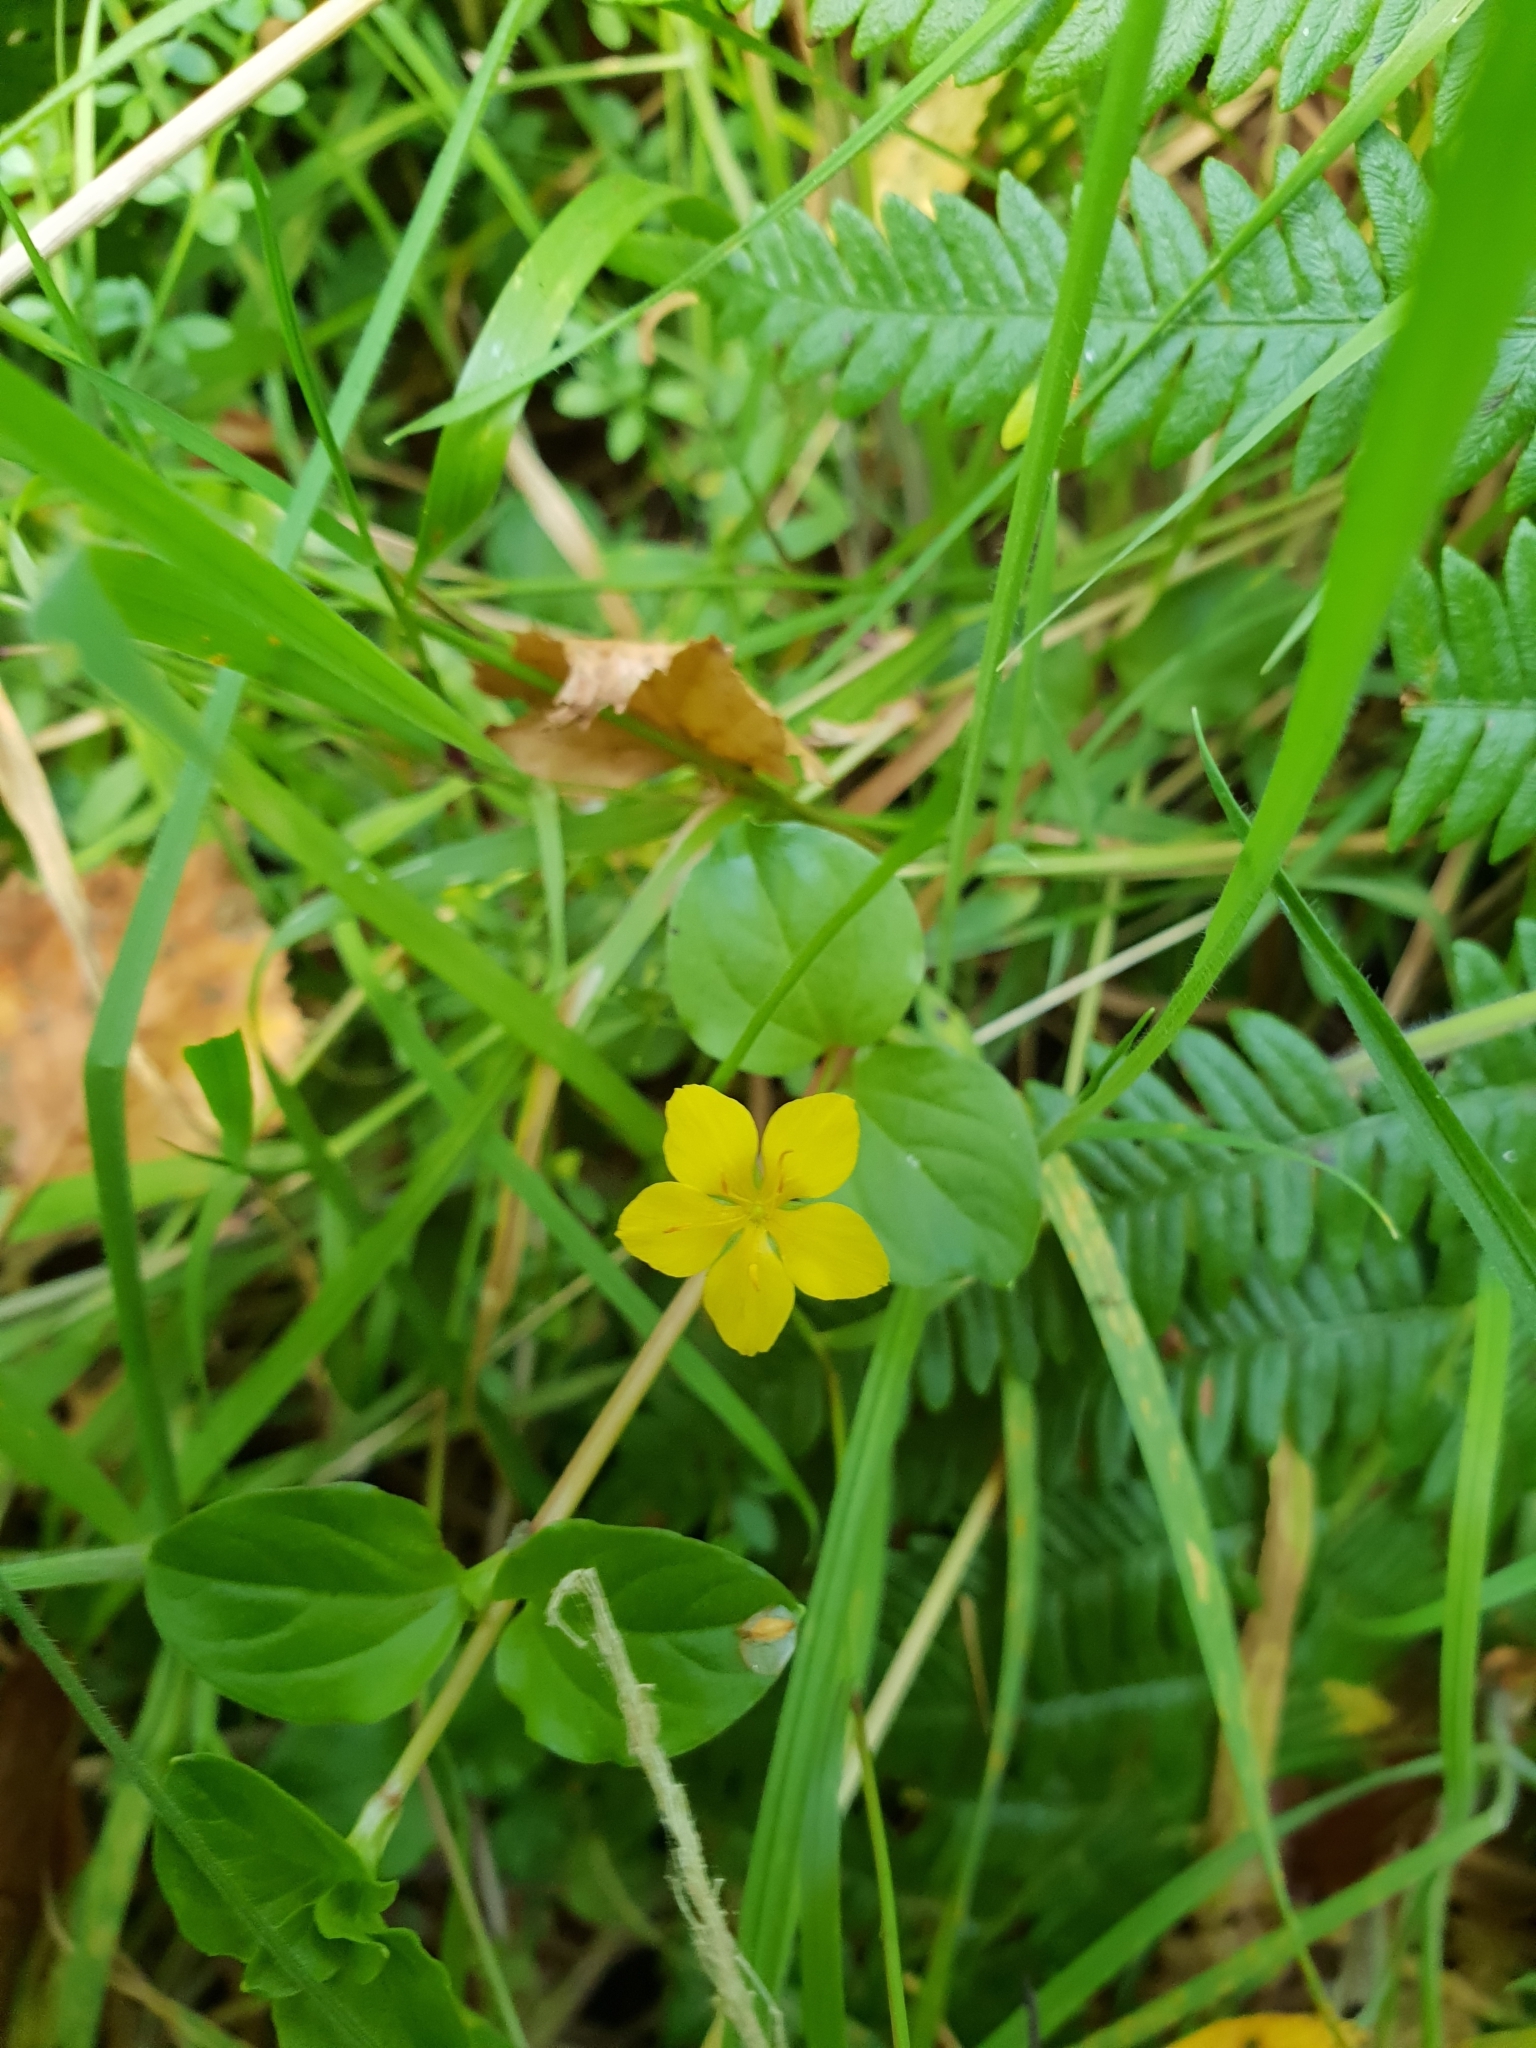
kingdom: Plantae
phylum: Tracheophyta
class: Magnoliopsida
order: Ericales
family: Primulaceae
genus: Lysimachia
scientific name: Lysimachia nemorum
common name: Yellow pimpernel
